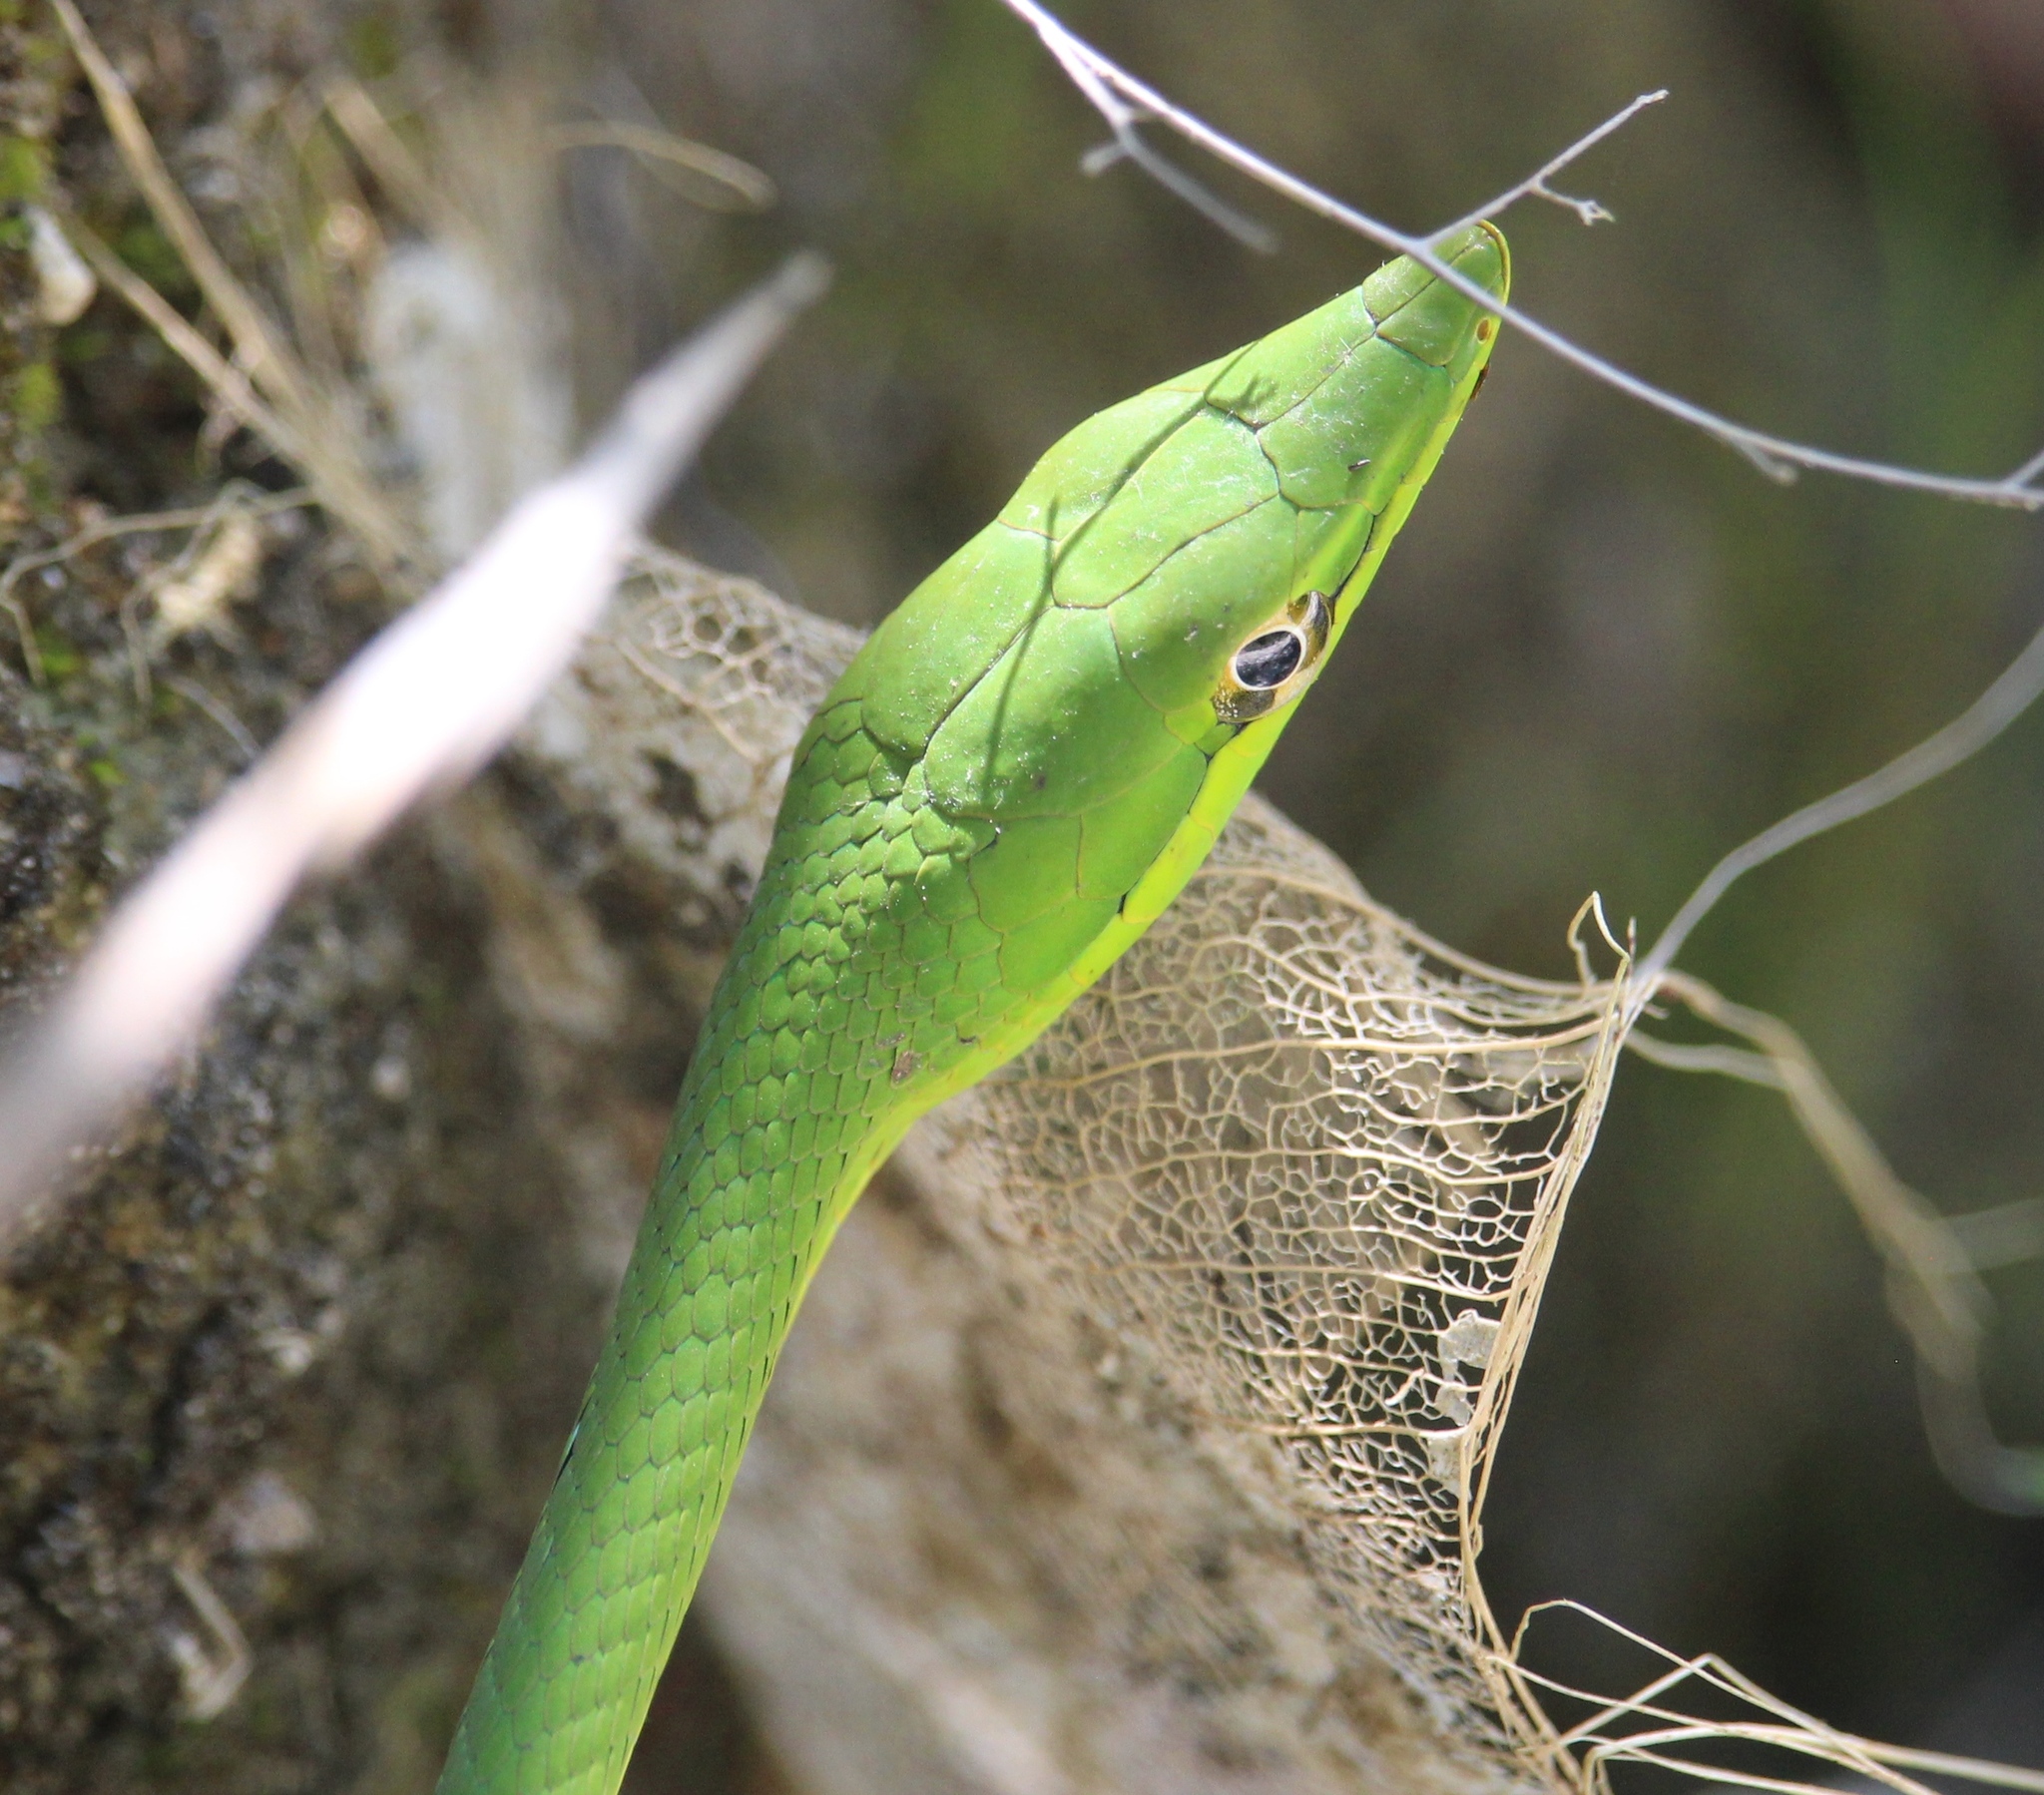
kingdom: Animalia
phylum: Chordata
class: Squamata
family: Colubridae
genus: Oxybelis
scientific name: Oxybelis fulgidus
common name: Green vine snake
